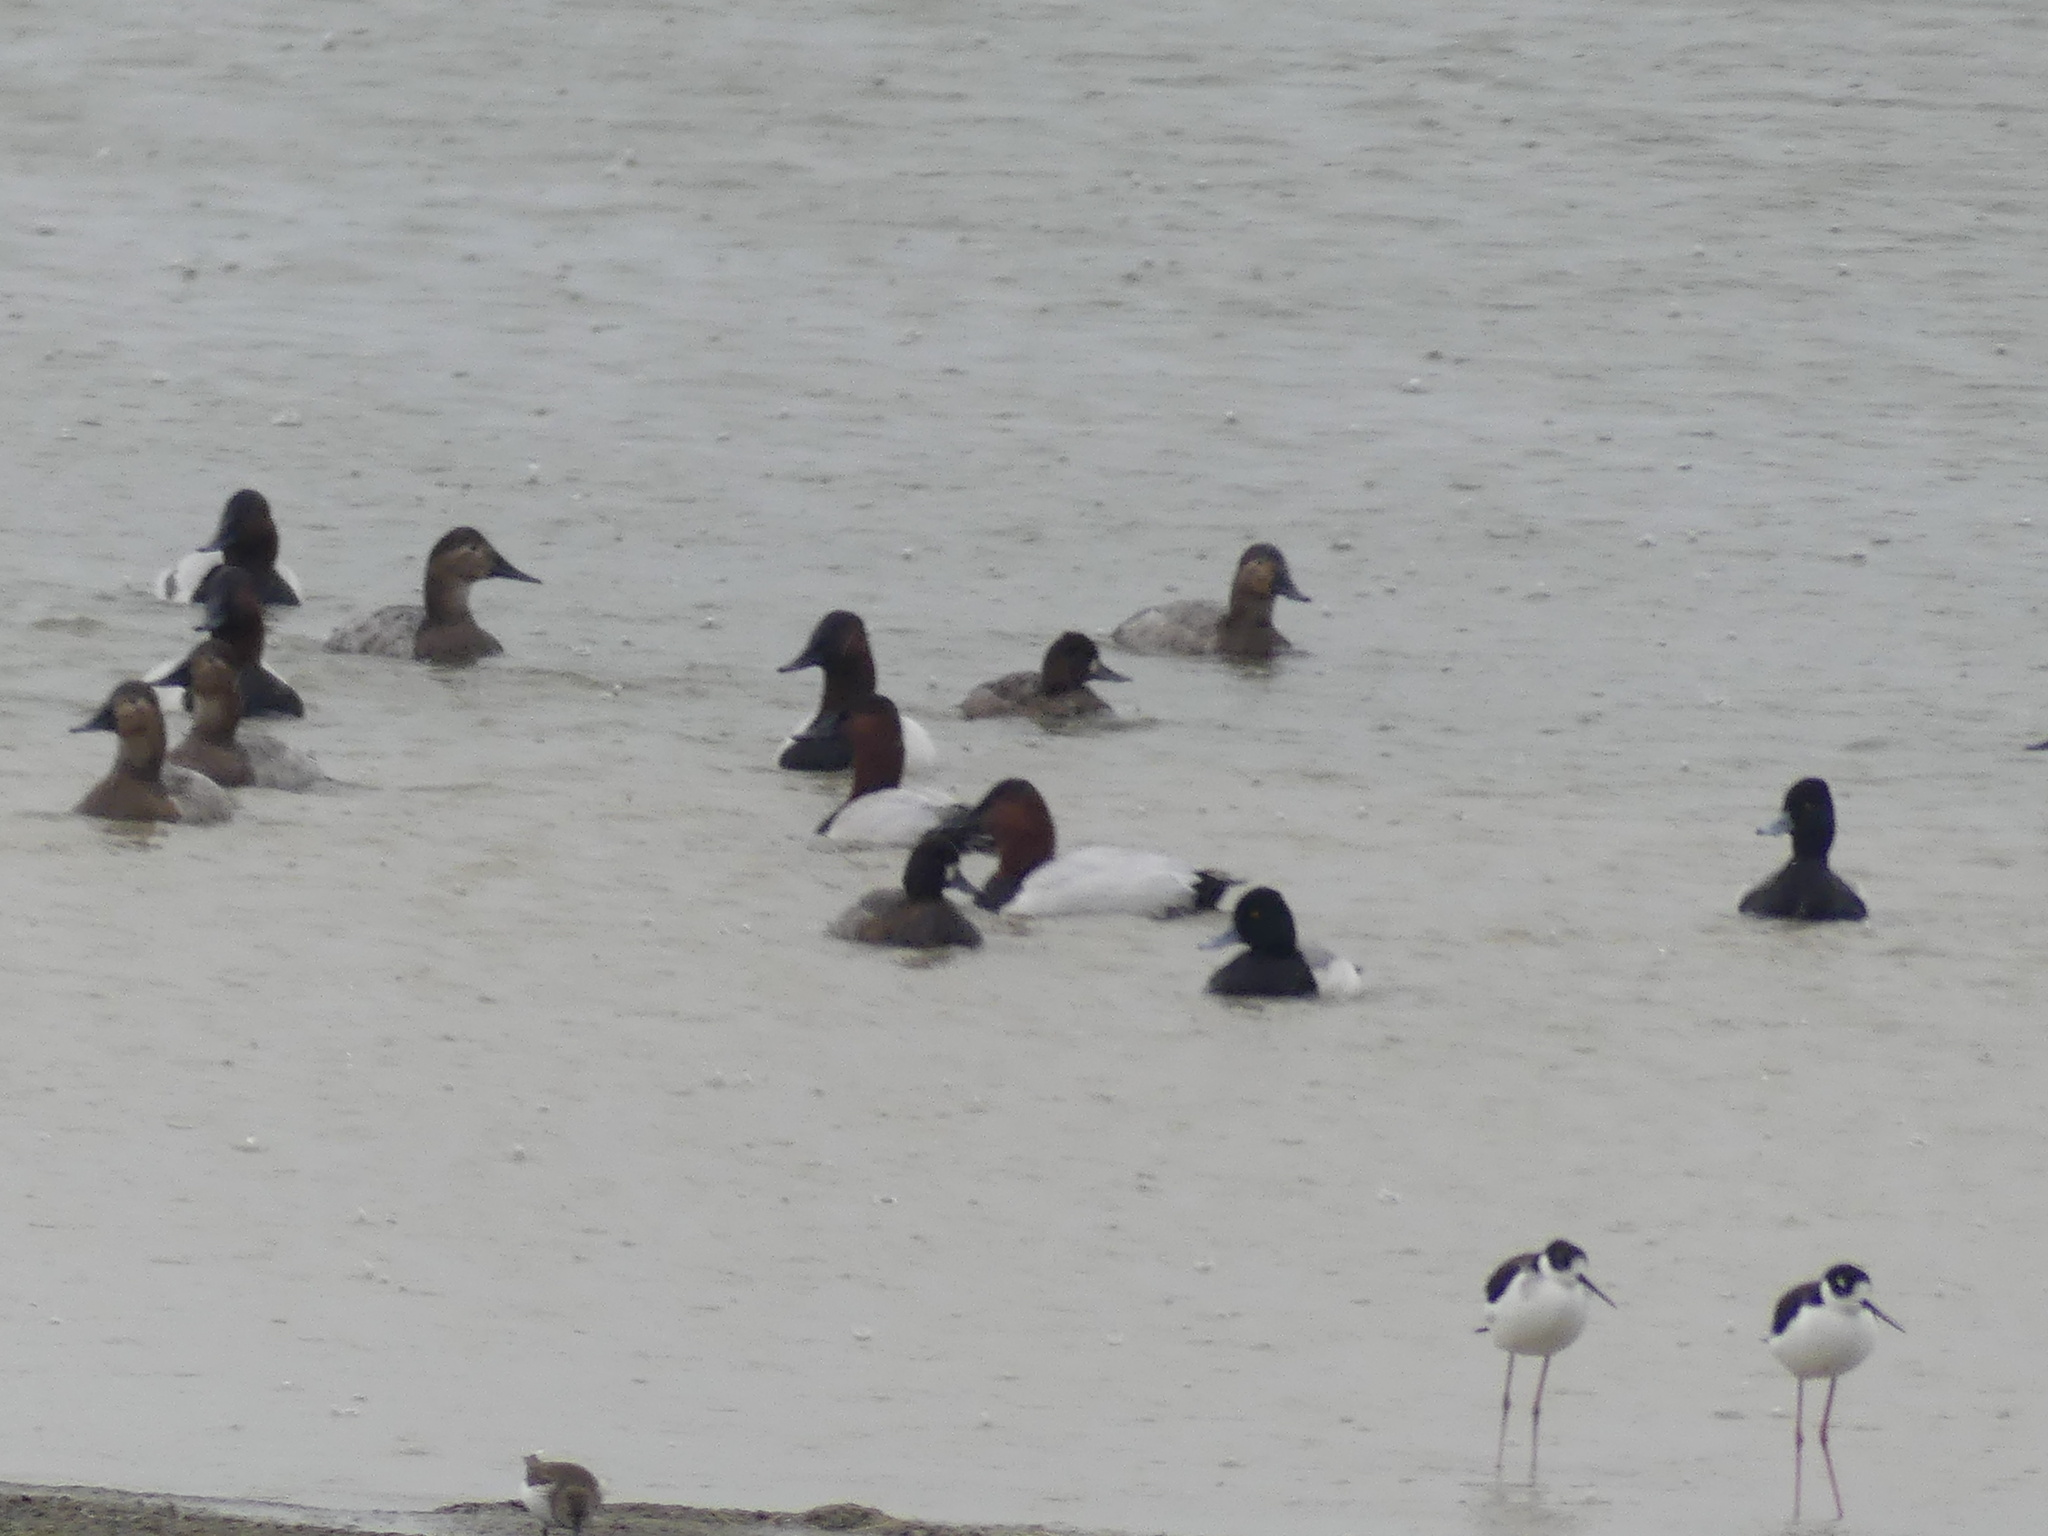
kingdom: Animalia
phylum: Chordata
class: Aves
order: Anseriformes
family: Anatidae
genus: Aythya
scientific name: Aythya affinis
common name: Lesser scaup
